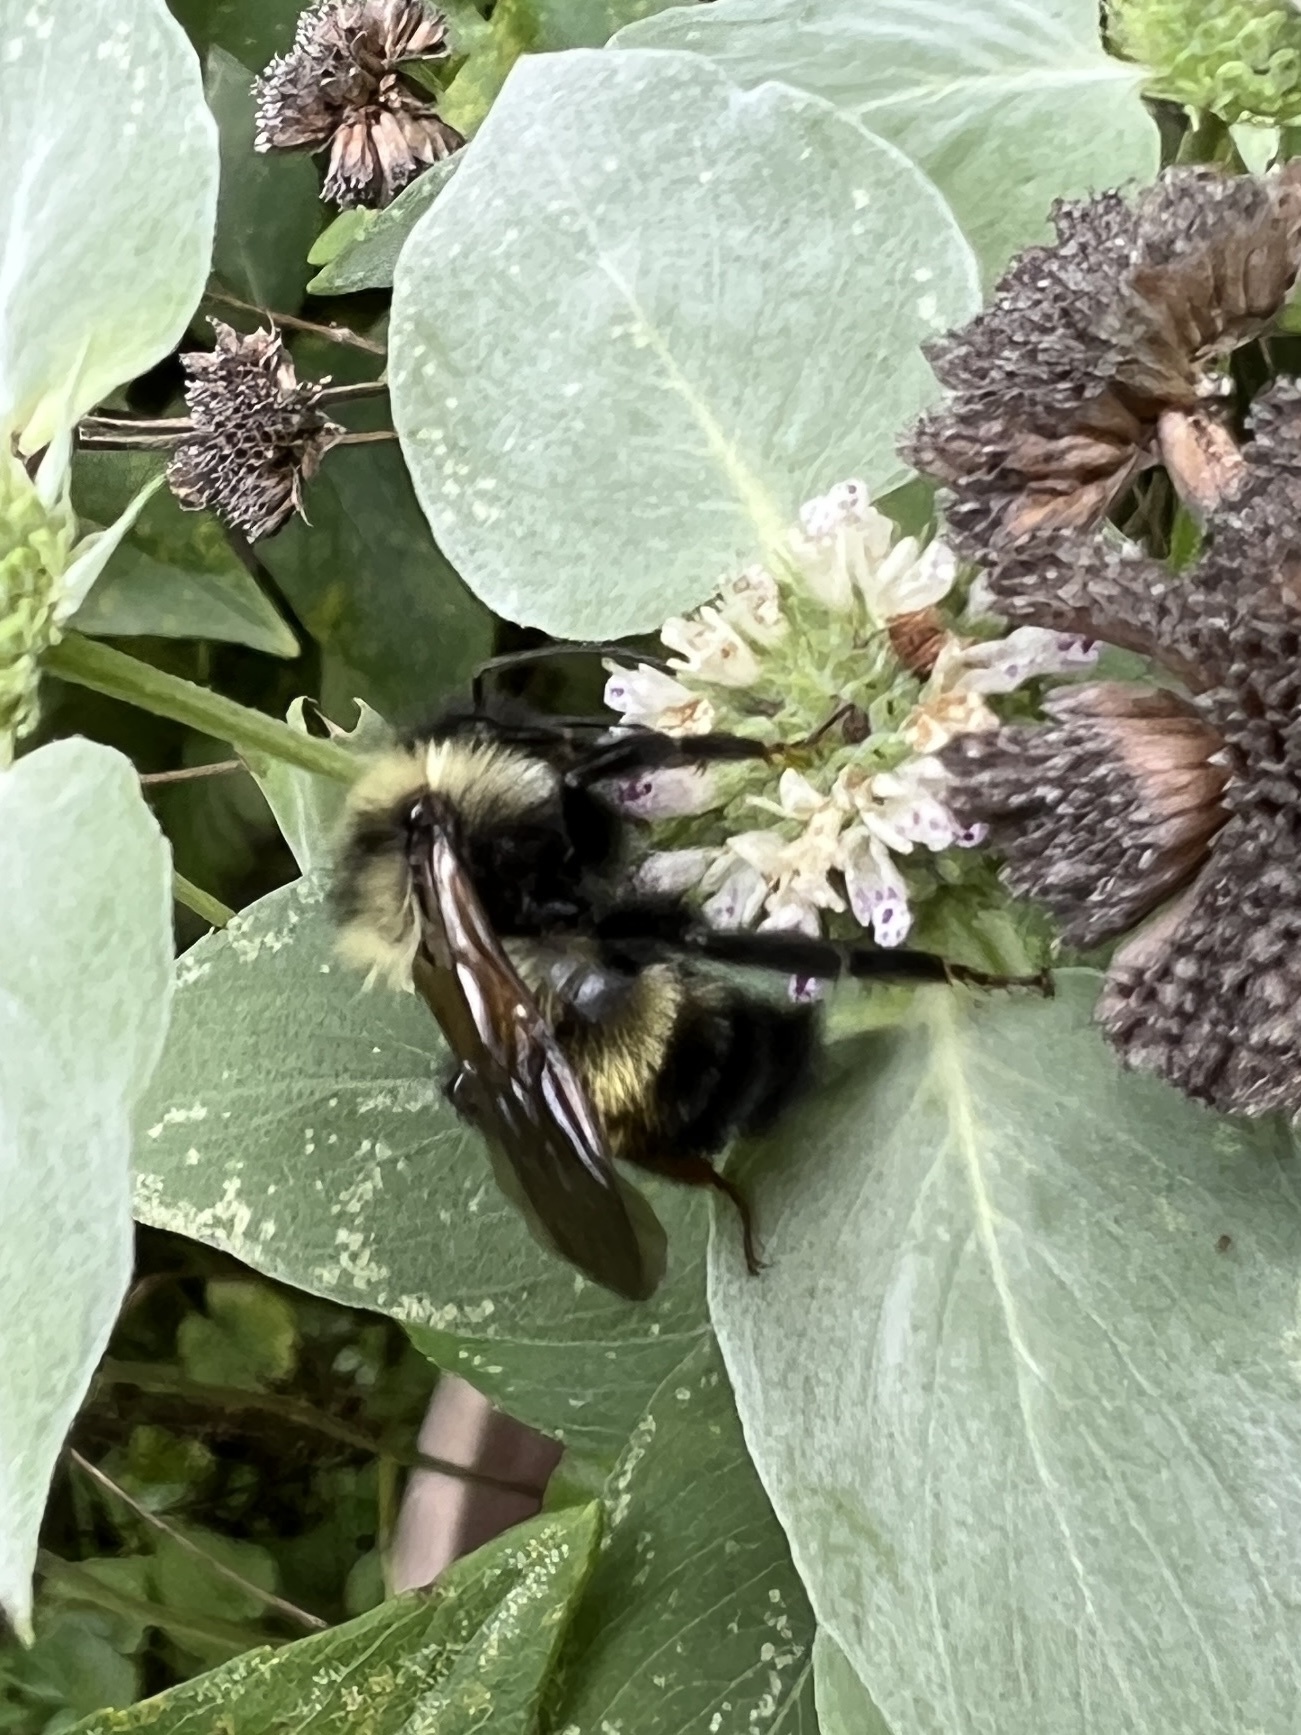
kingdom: Animalia
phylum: Arthropoda
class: Insecta
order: Hymenoptera
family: Apidae
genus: Bombus
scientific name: Bombus citrinus
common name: Lemon cuckoo bumble bee
